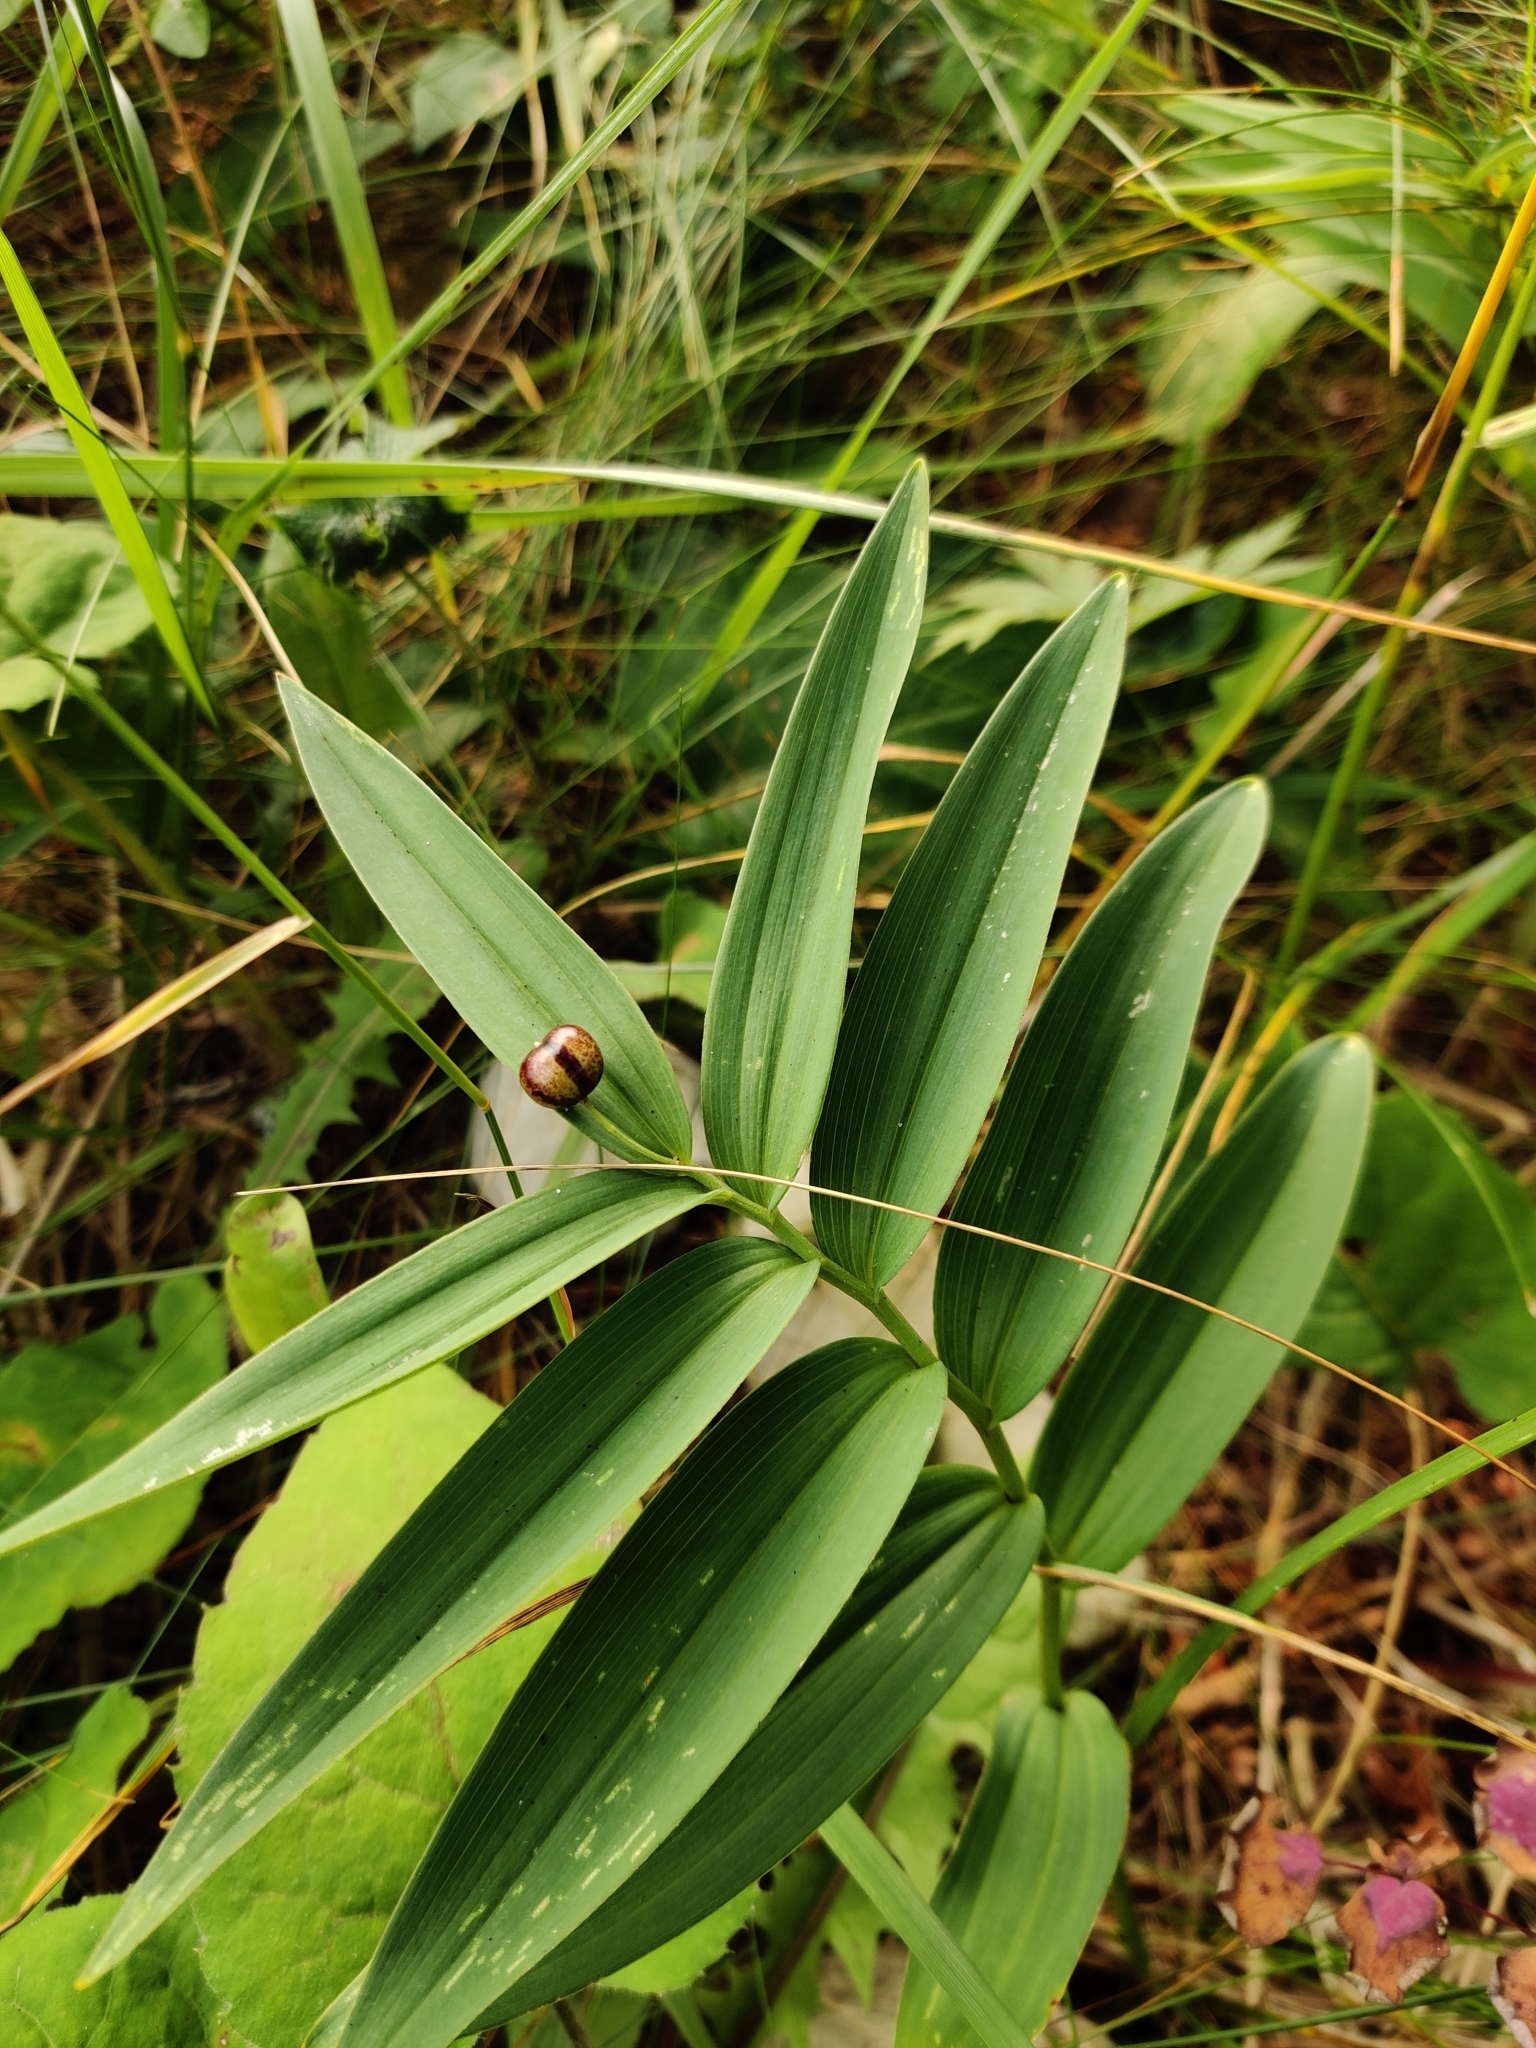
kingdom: Plantae
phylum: Tracheophyta
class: Liliopsida
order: Asparagales
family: Asparagaceae
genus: Maianthemum
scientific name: Maianthemum stellatum
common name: Little false solomon's seal
